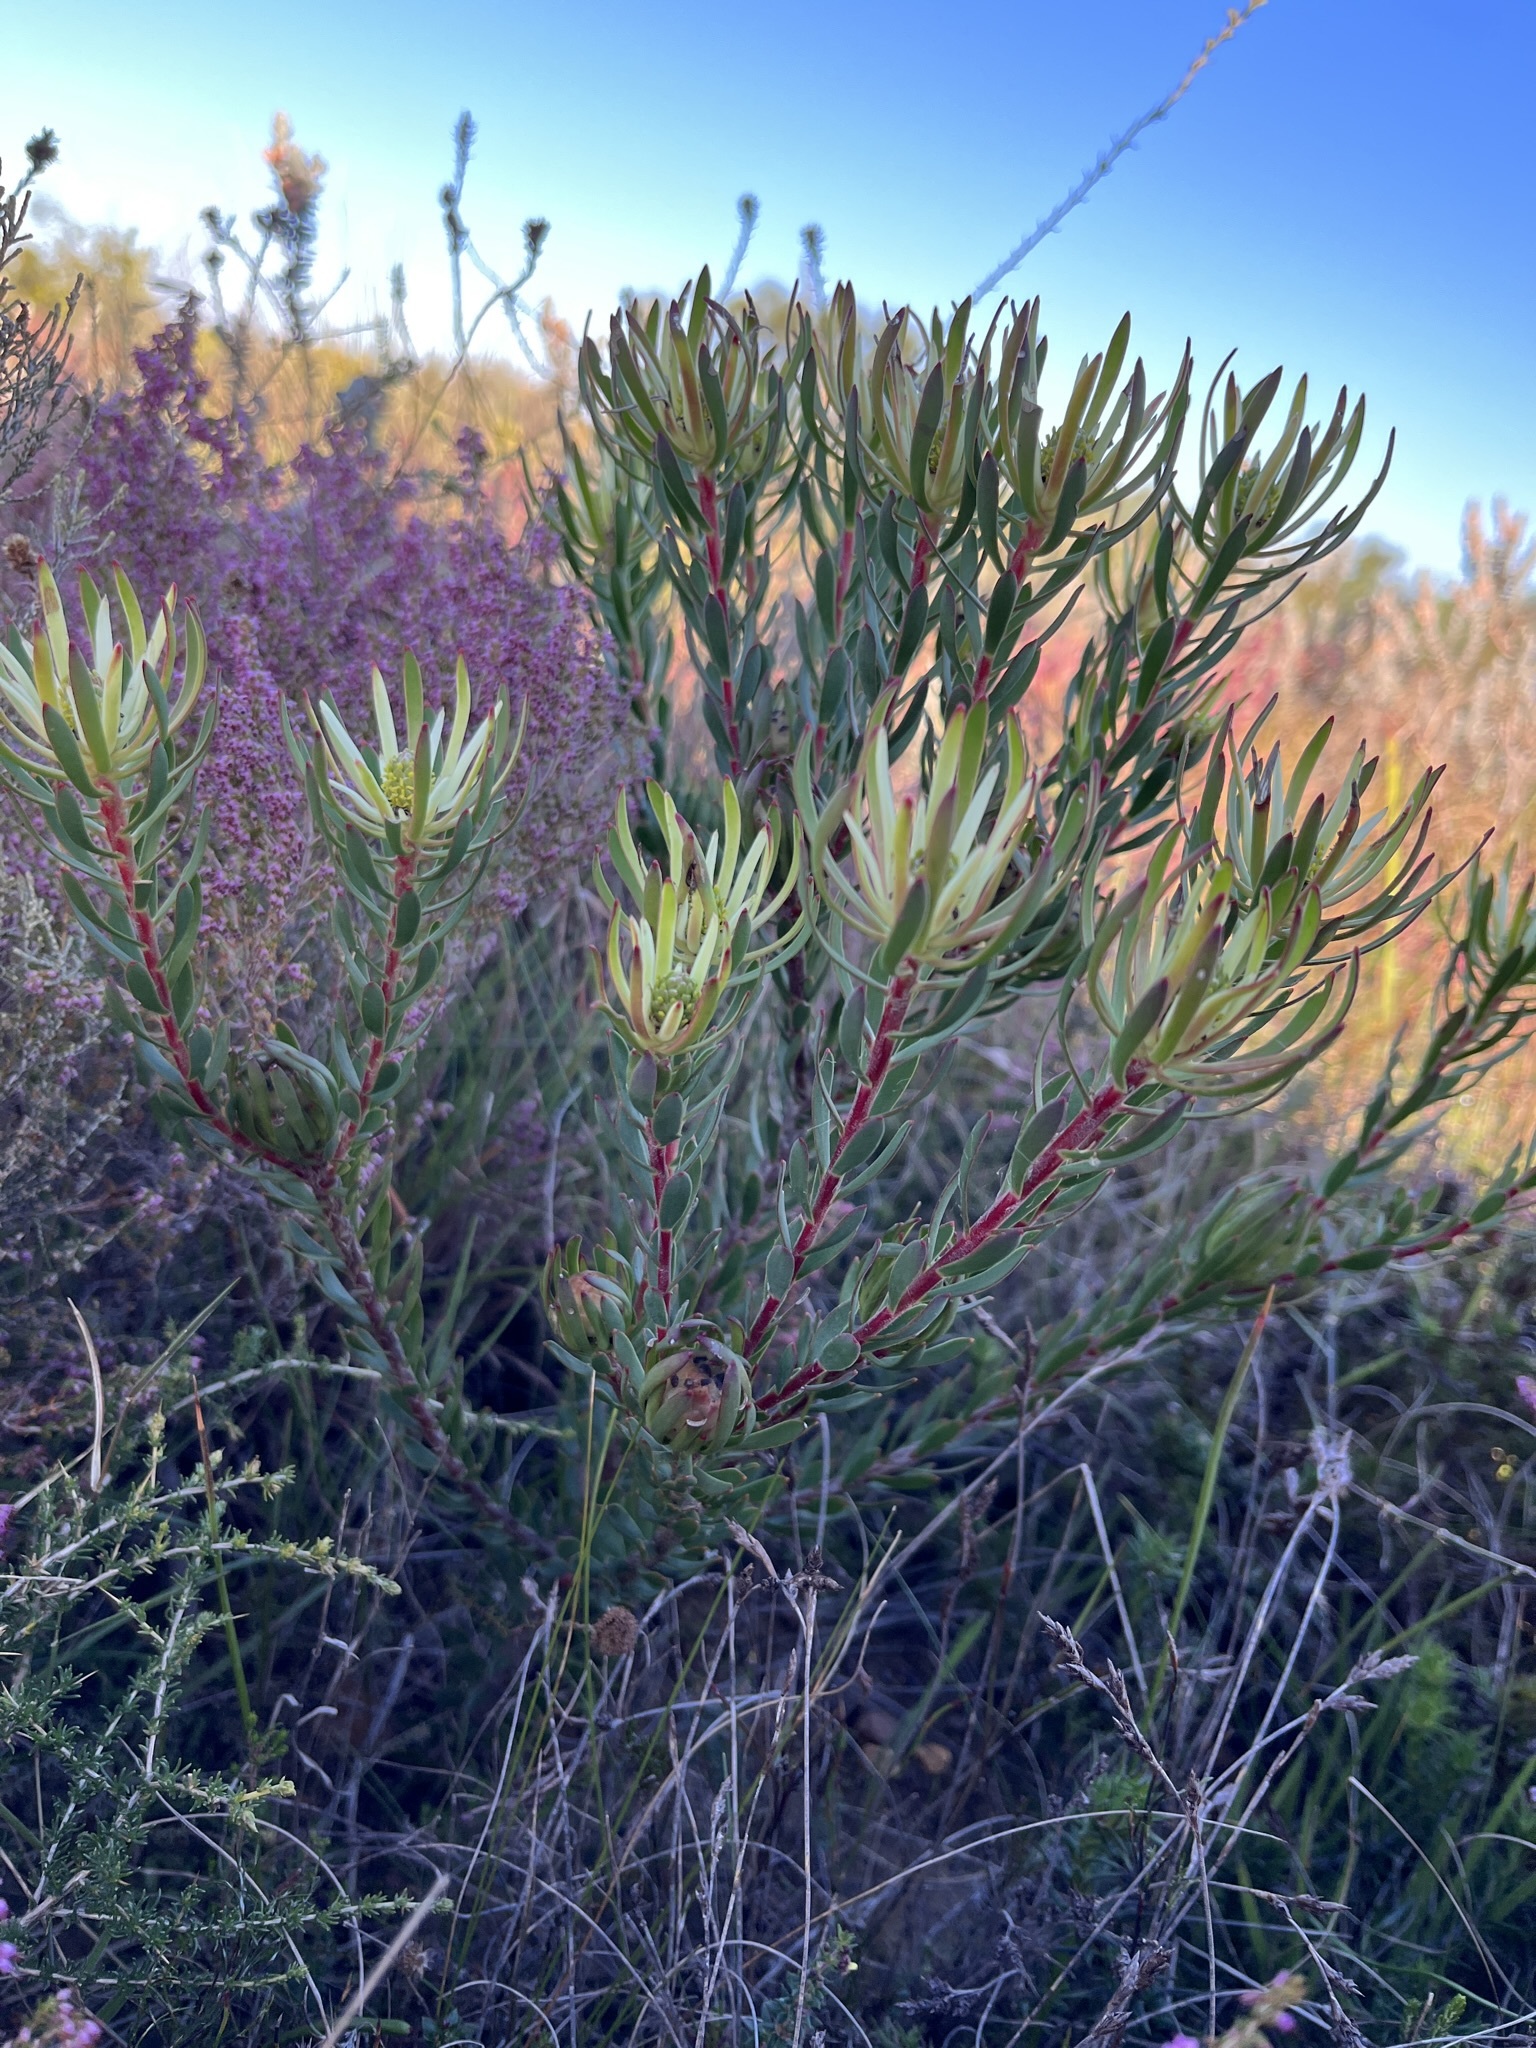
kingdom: Plantae
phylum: Tracheophyta
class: Magnoliopsida
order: Proteales
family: Proteaceae
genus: Leucadendron
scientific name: Leucadendron
